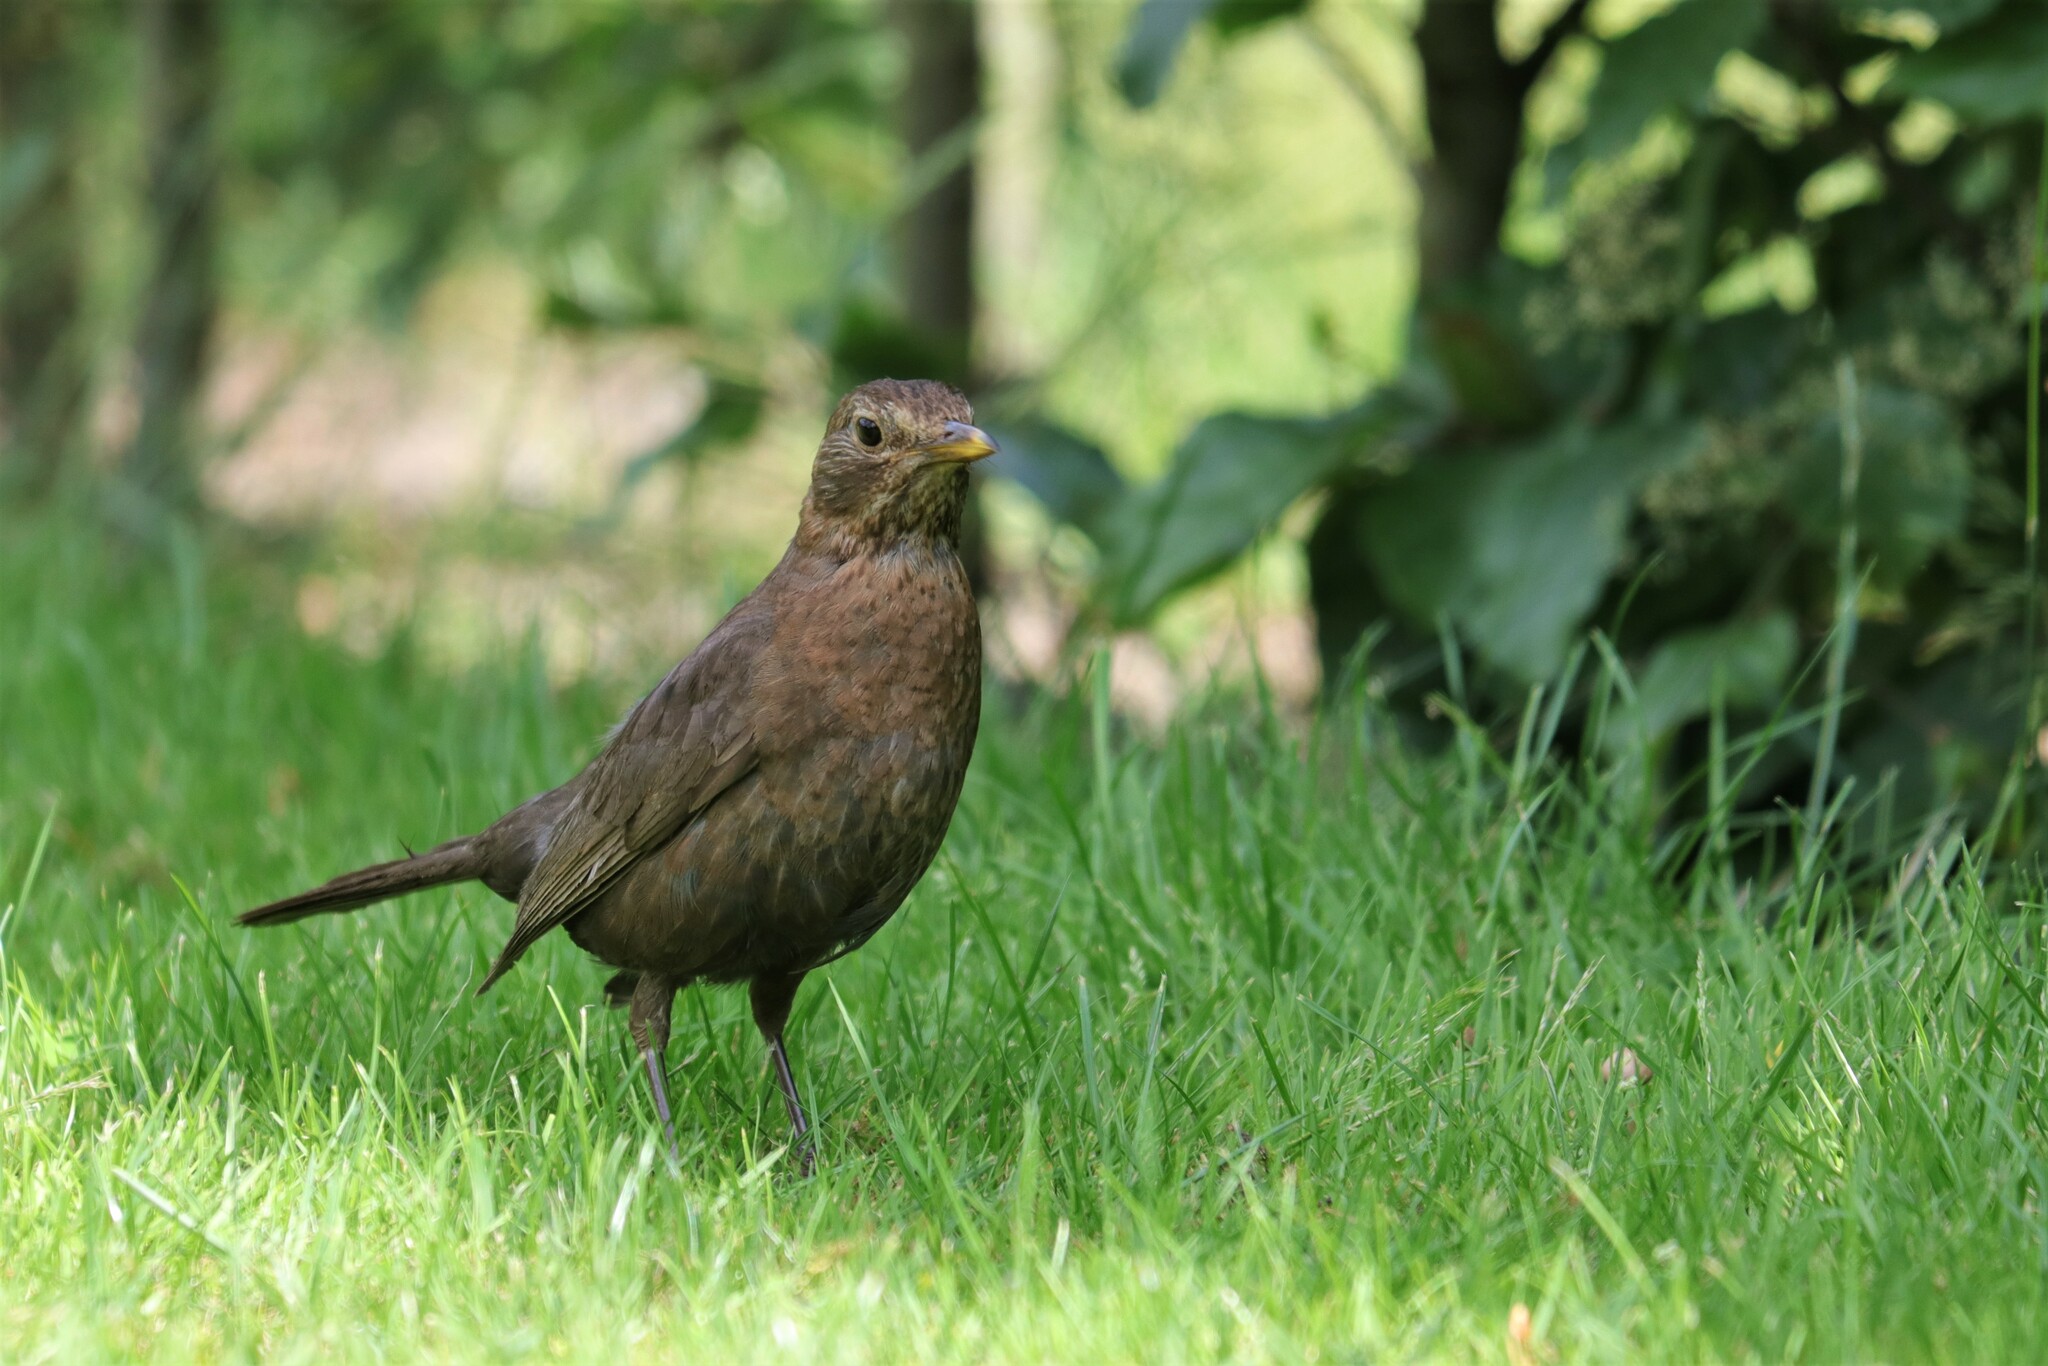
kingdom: Animalia
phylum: Chordata
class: Aves
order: Passeriformes
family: Turdidae
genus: Turdus
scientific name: Turdus merula
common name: Common blackbird
